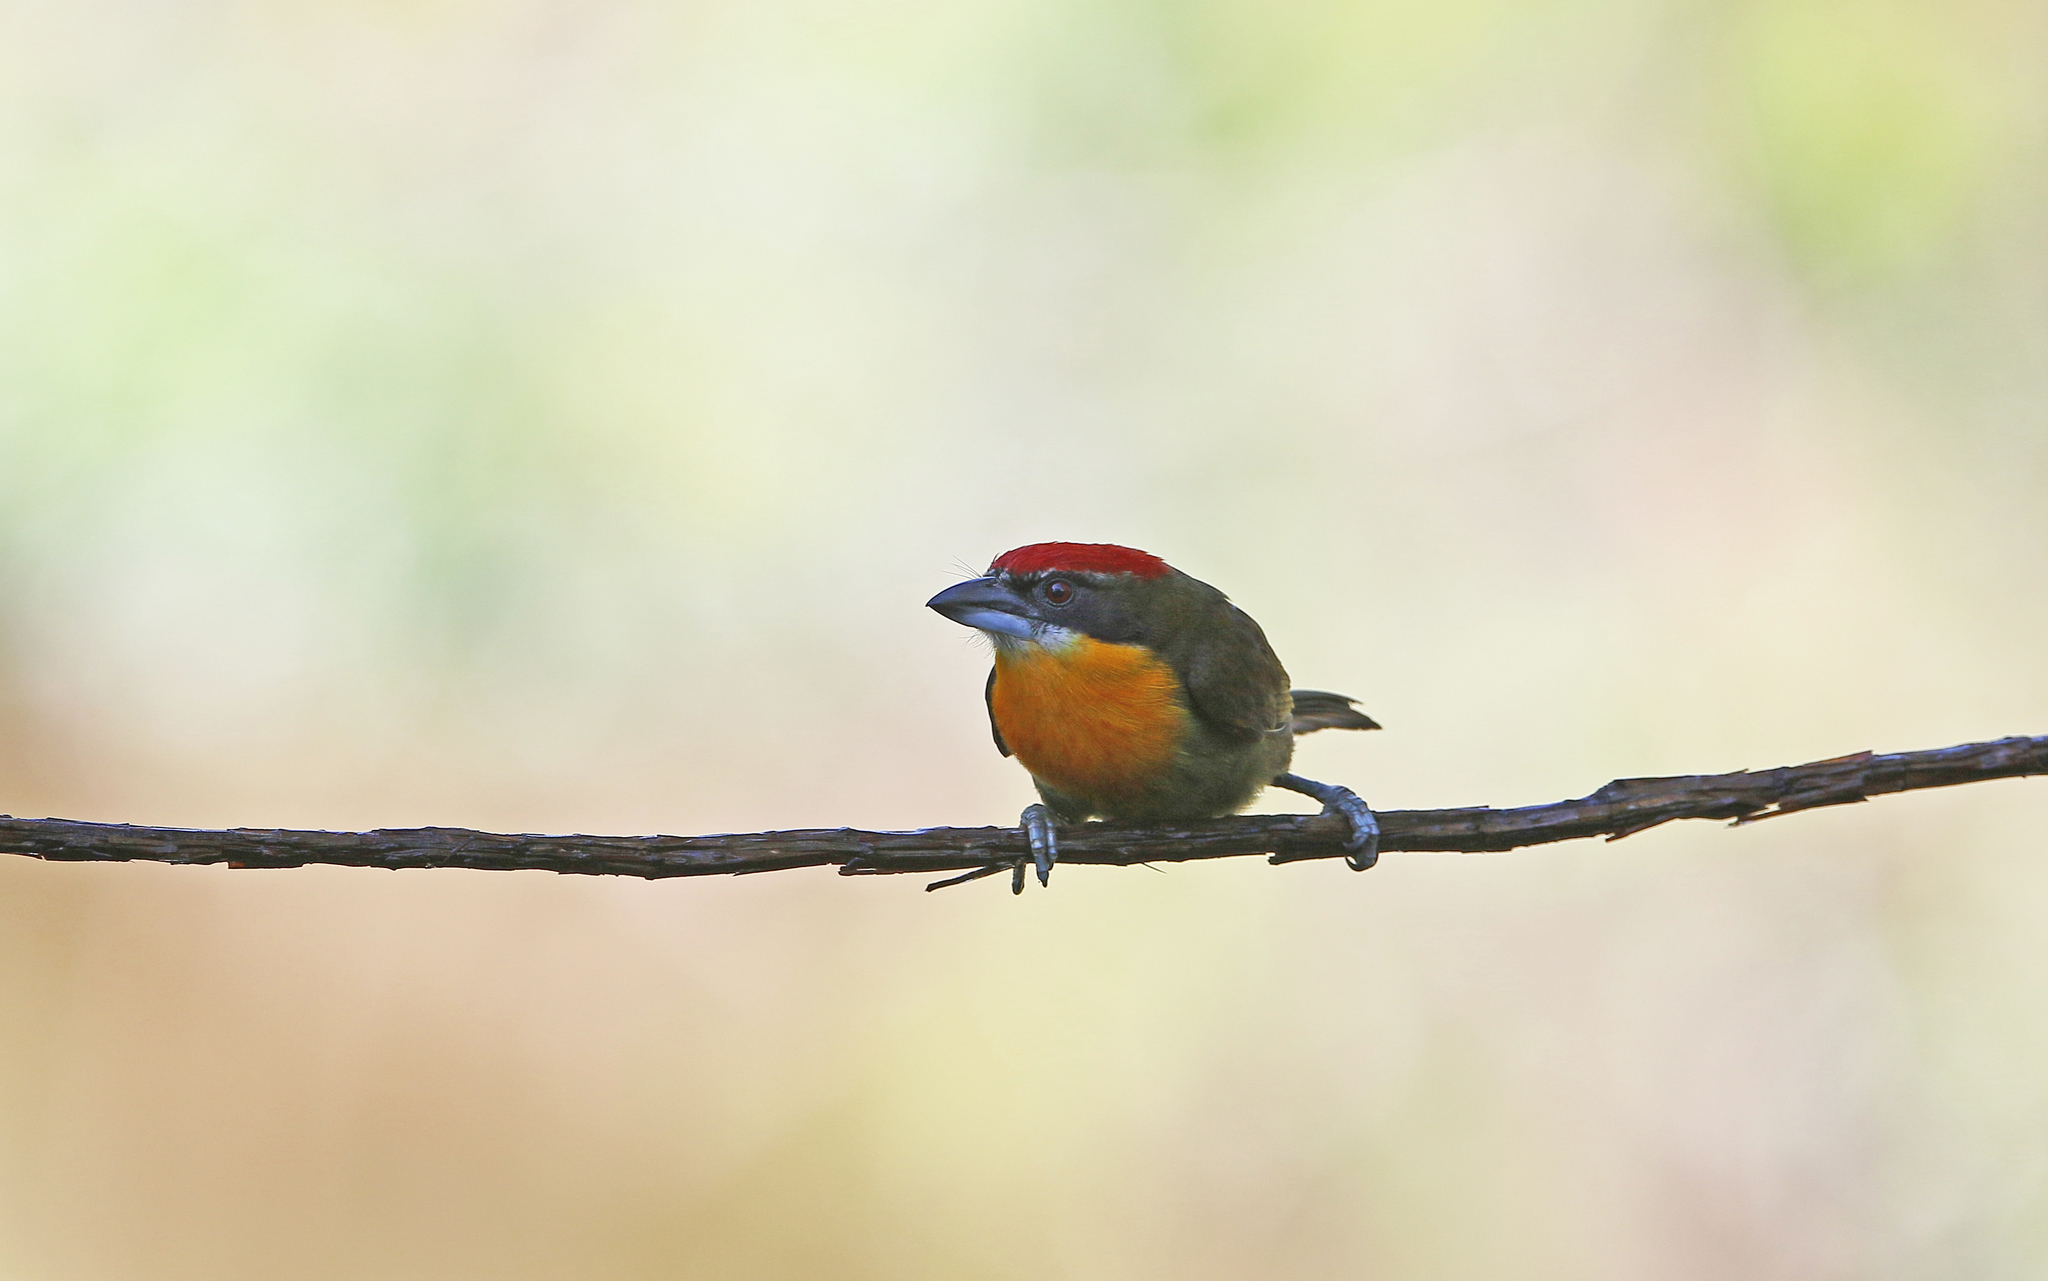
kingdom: Animalia
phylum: Chordata
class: Aves
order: Piciformes
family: Capitonidae
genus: Capito
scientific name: Capito aurovirens
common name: Scarlet-crowned barbet
